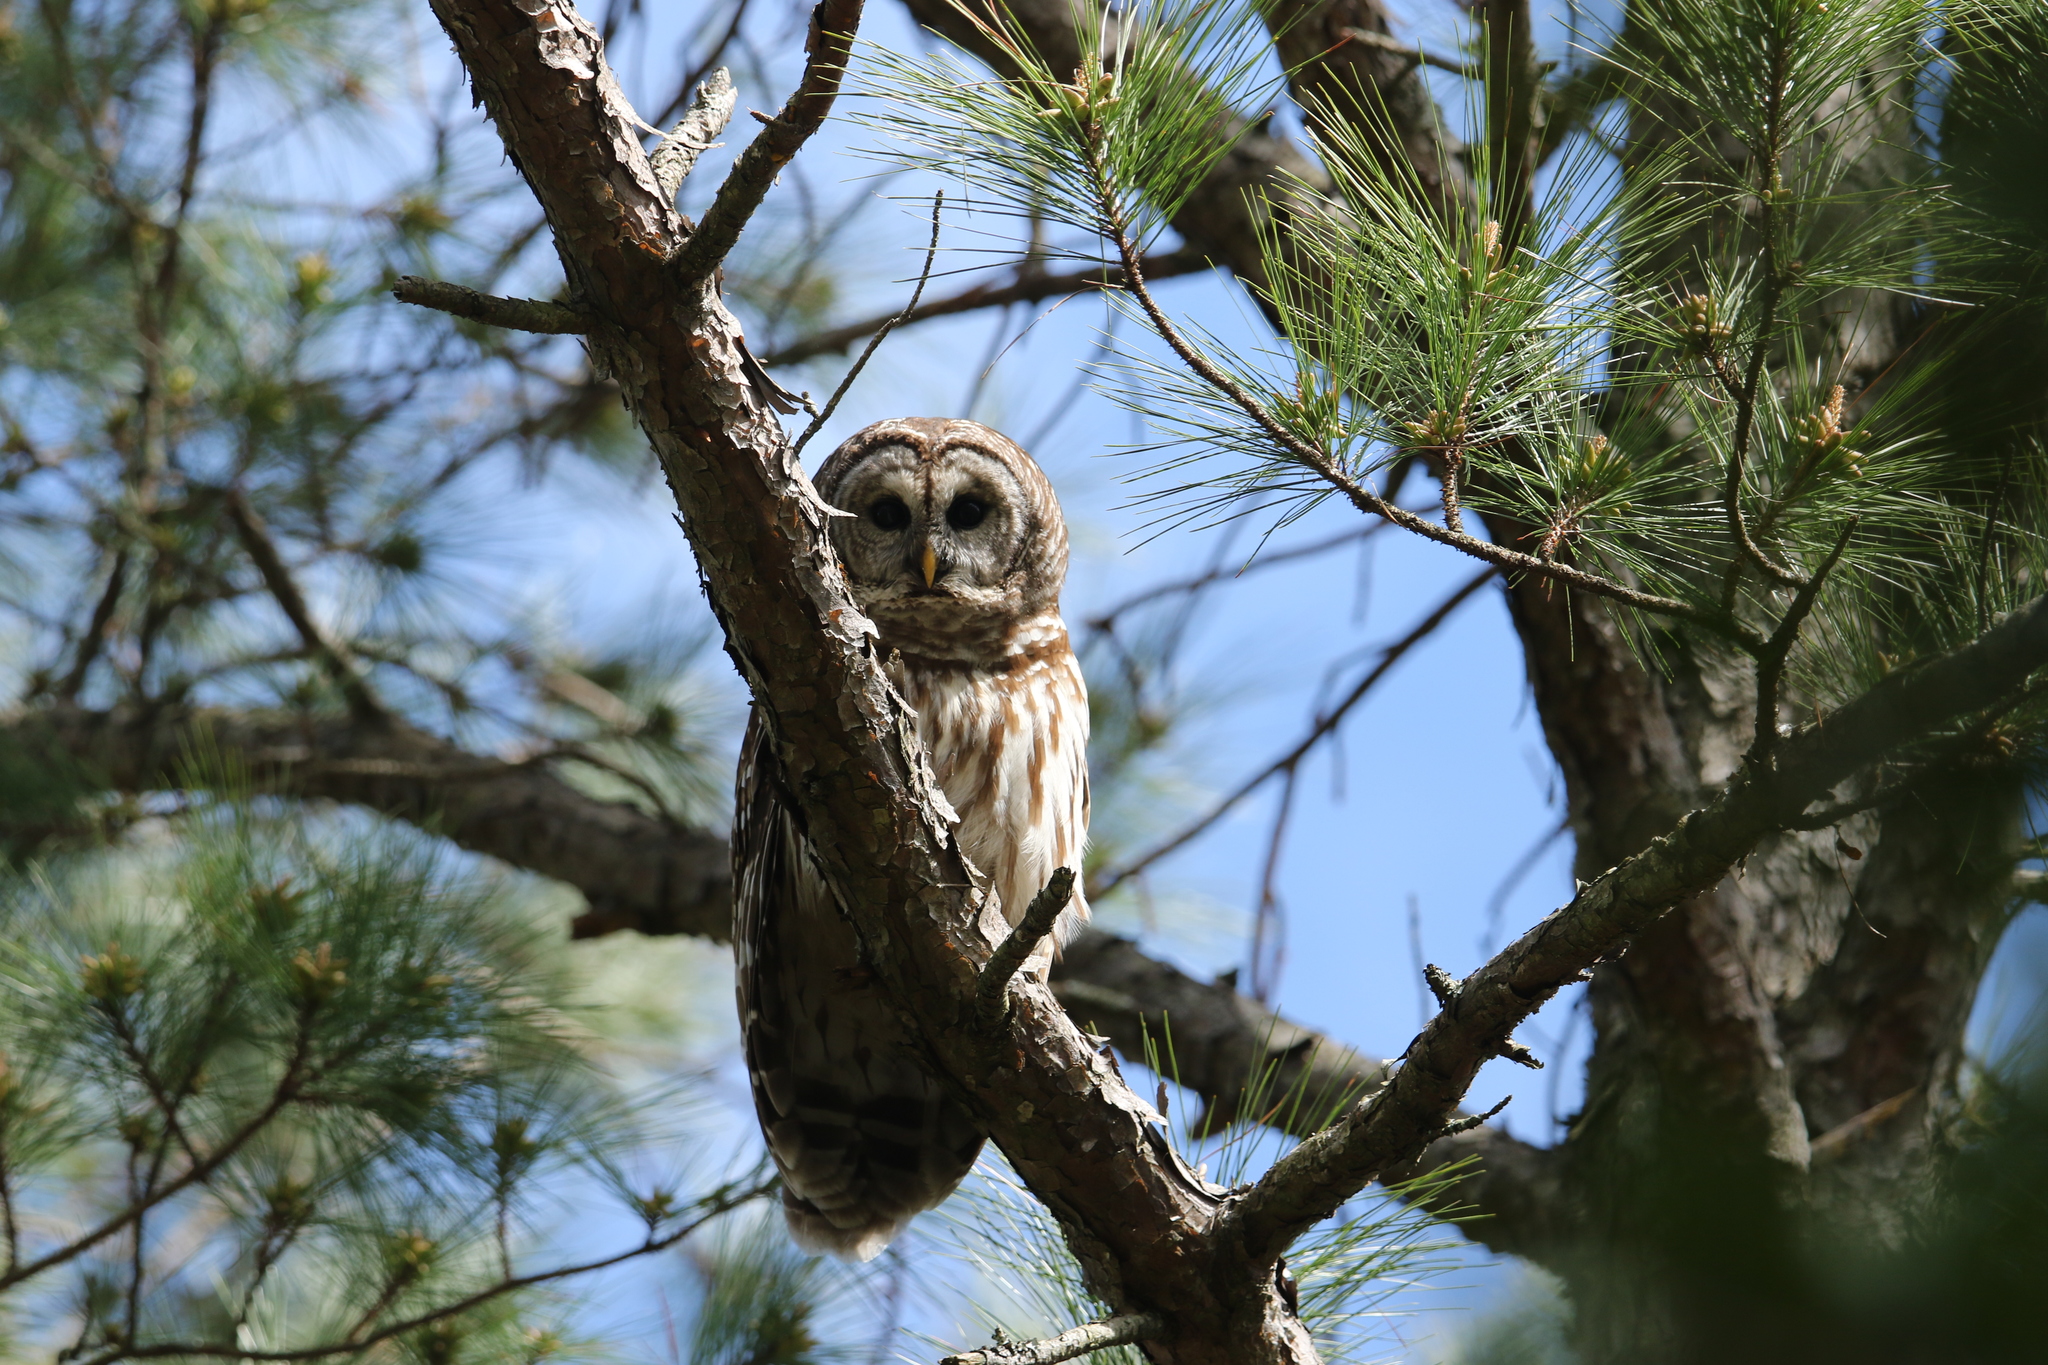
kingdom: Animalia
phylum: Chordata
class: Aves
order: Strigiformes
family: Strigidae
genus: Strix
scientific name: Strix varia
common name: Barred owl
